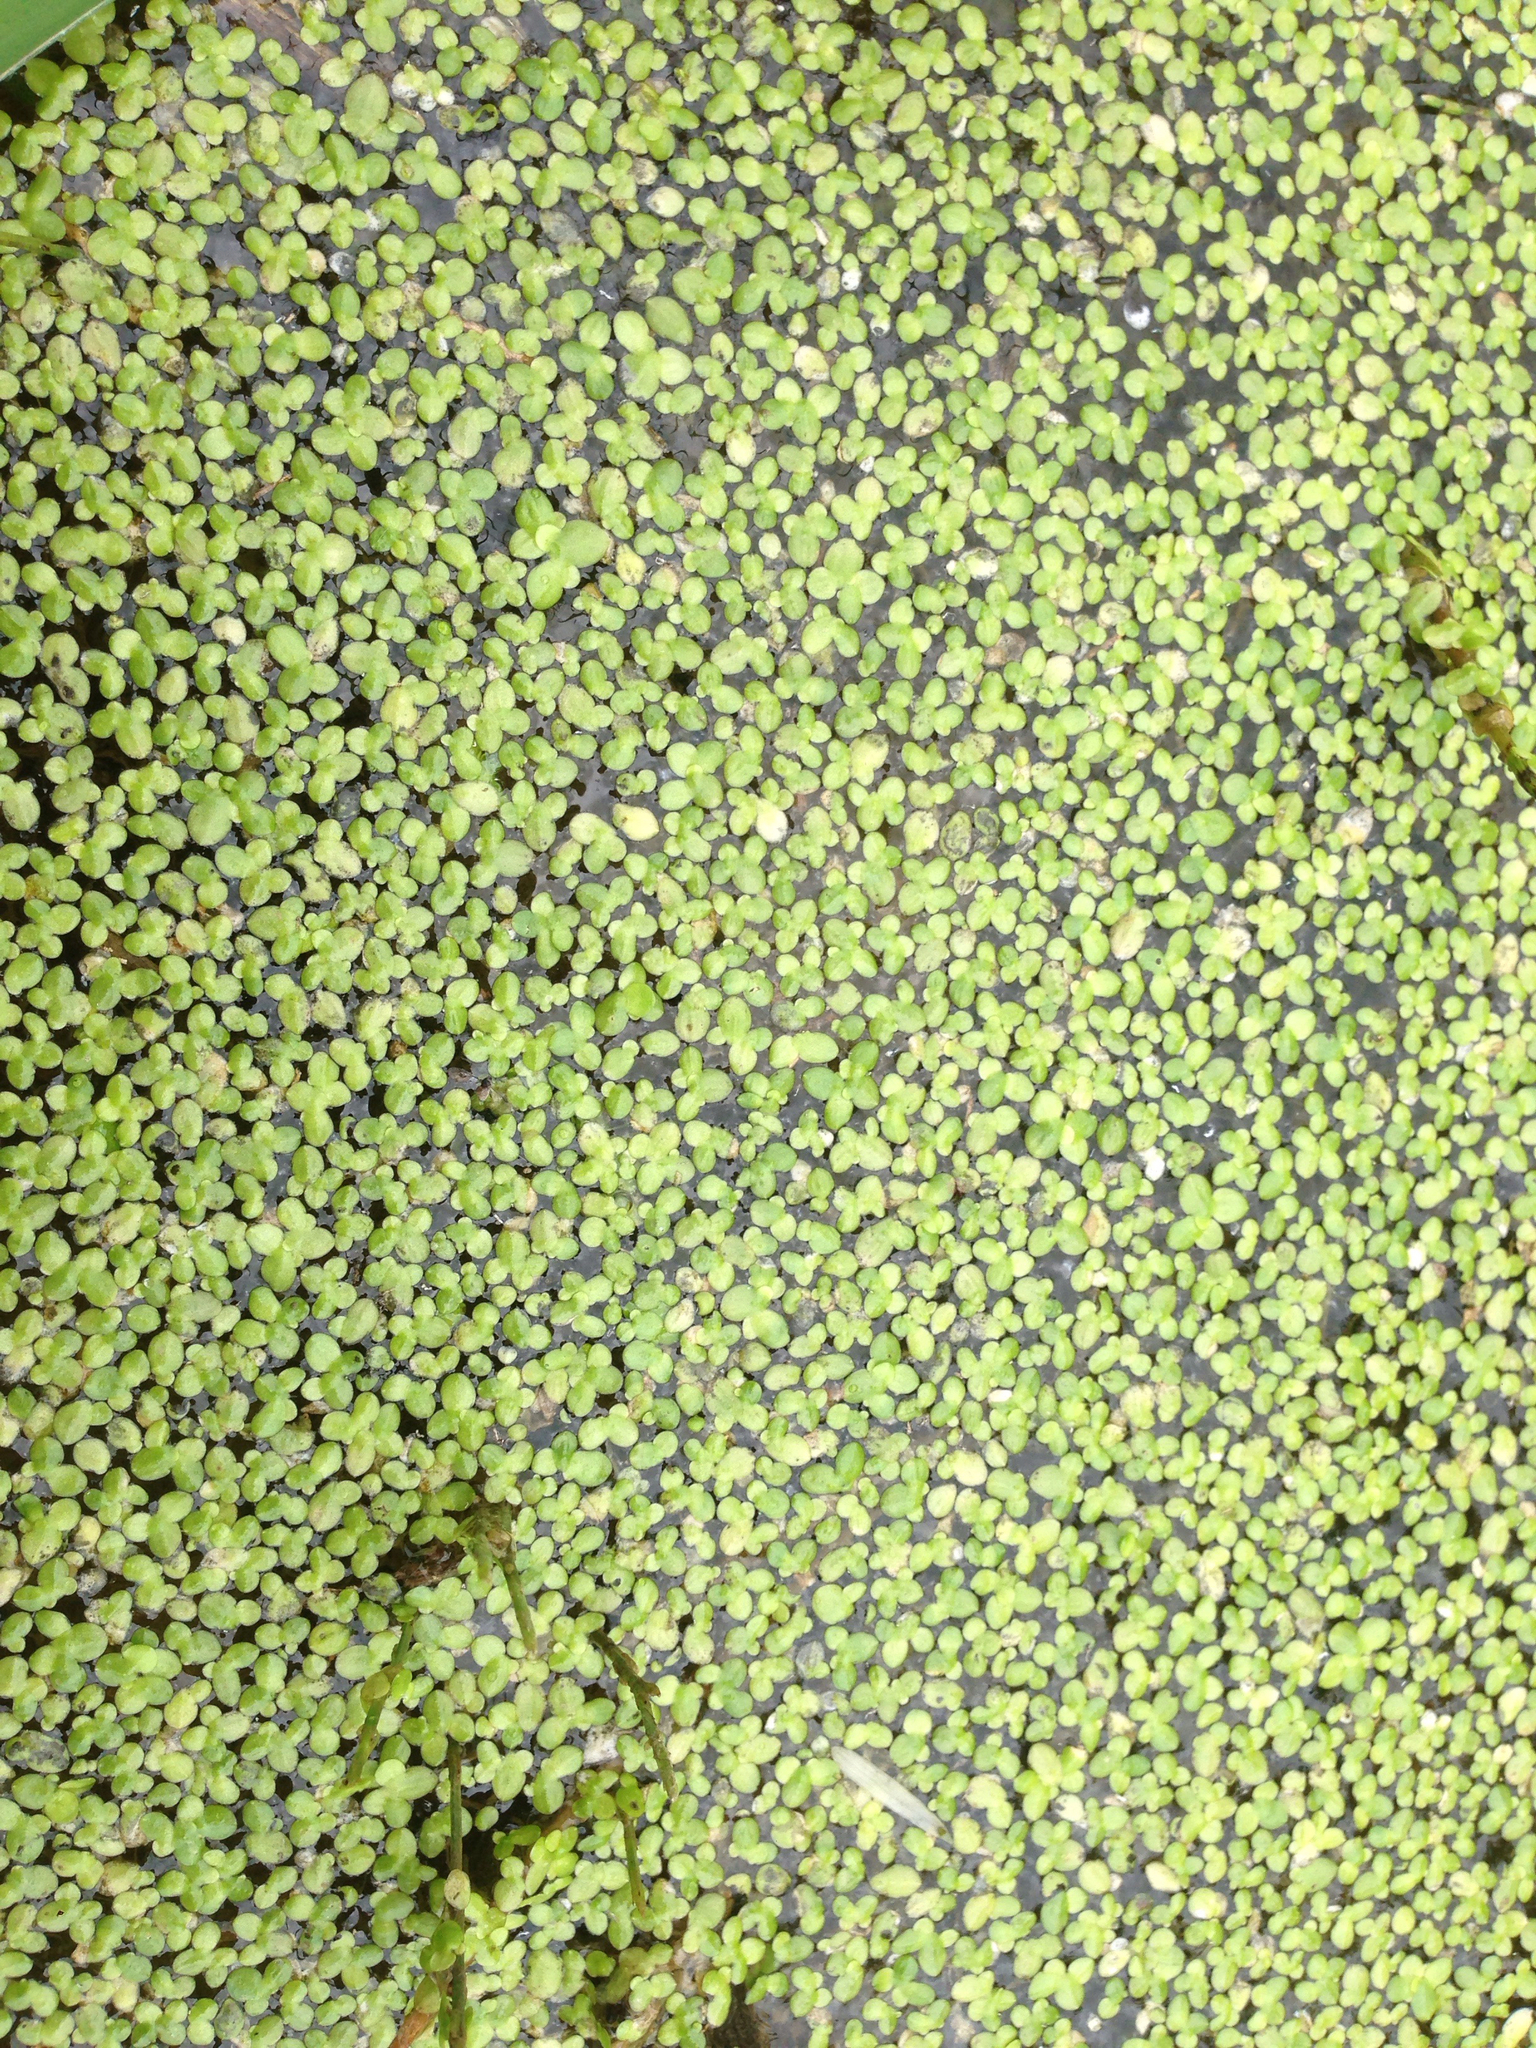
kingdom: Plantae
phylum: Tracheophyta
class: Liliopsida
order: Alismatales
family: Araceae
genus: Lemna
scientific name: Lemna perpusilla
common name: Duckweed
